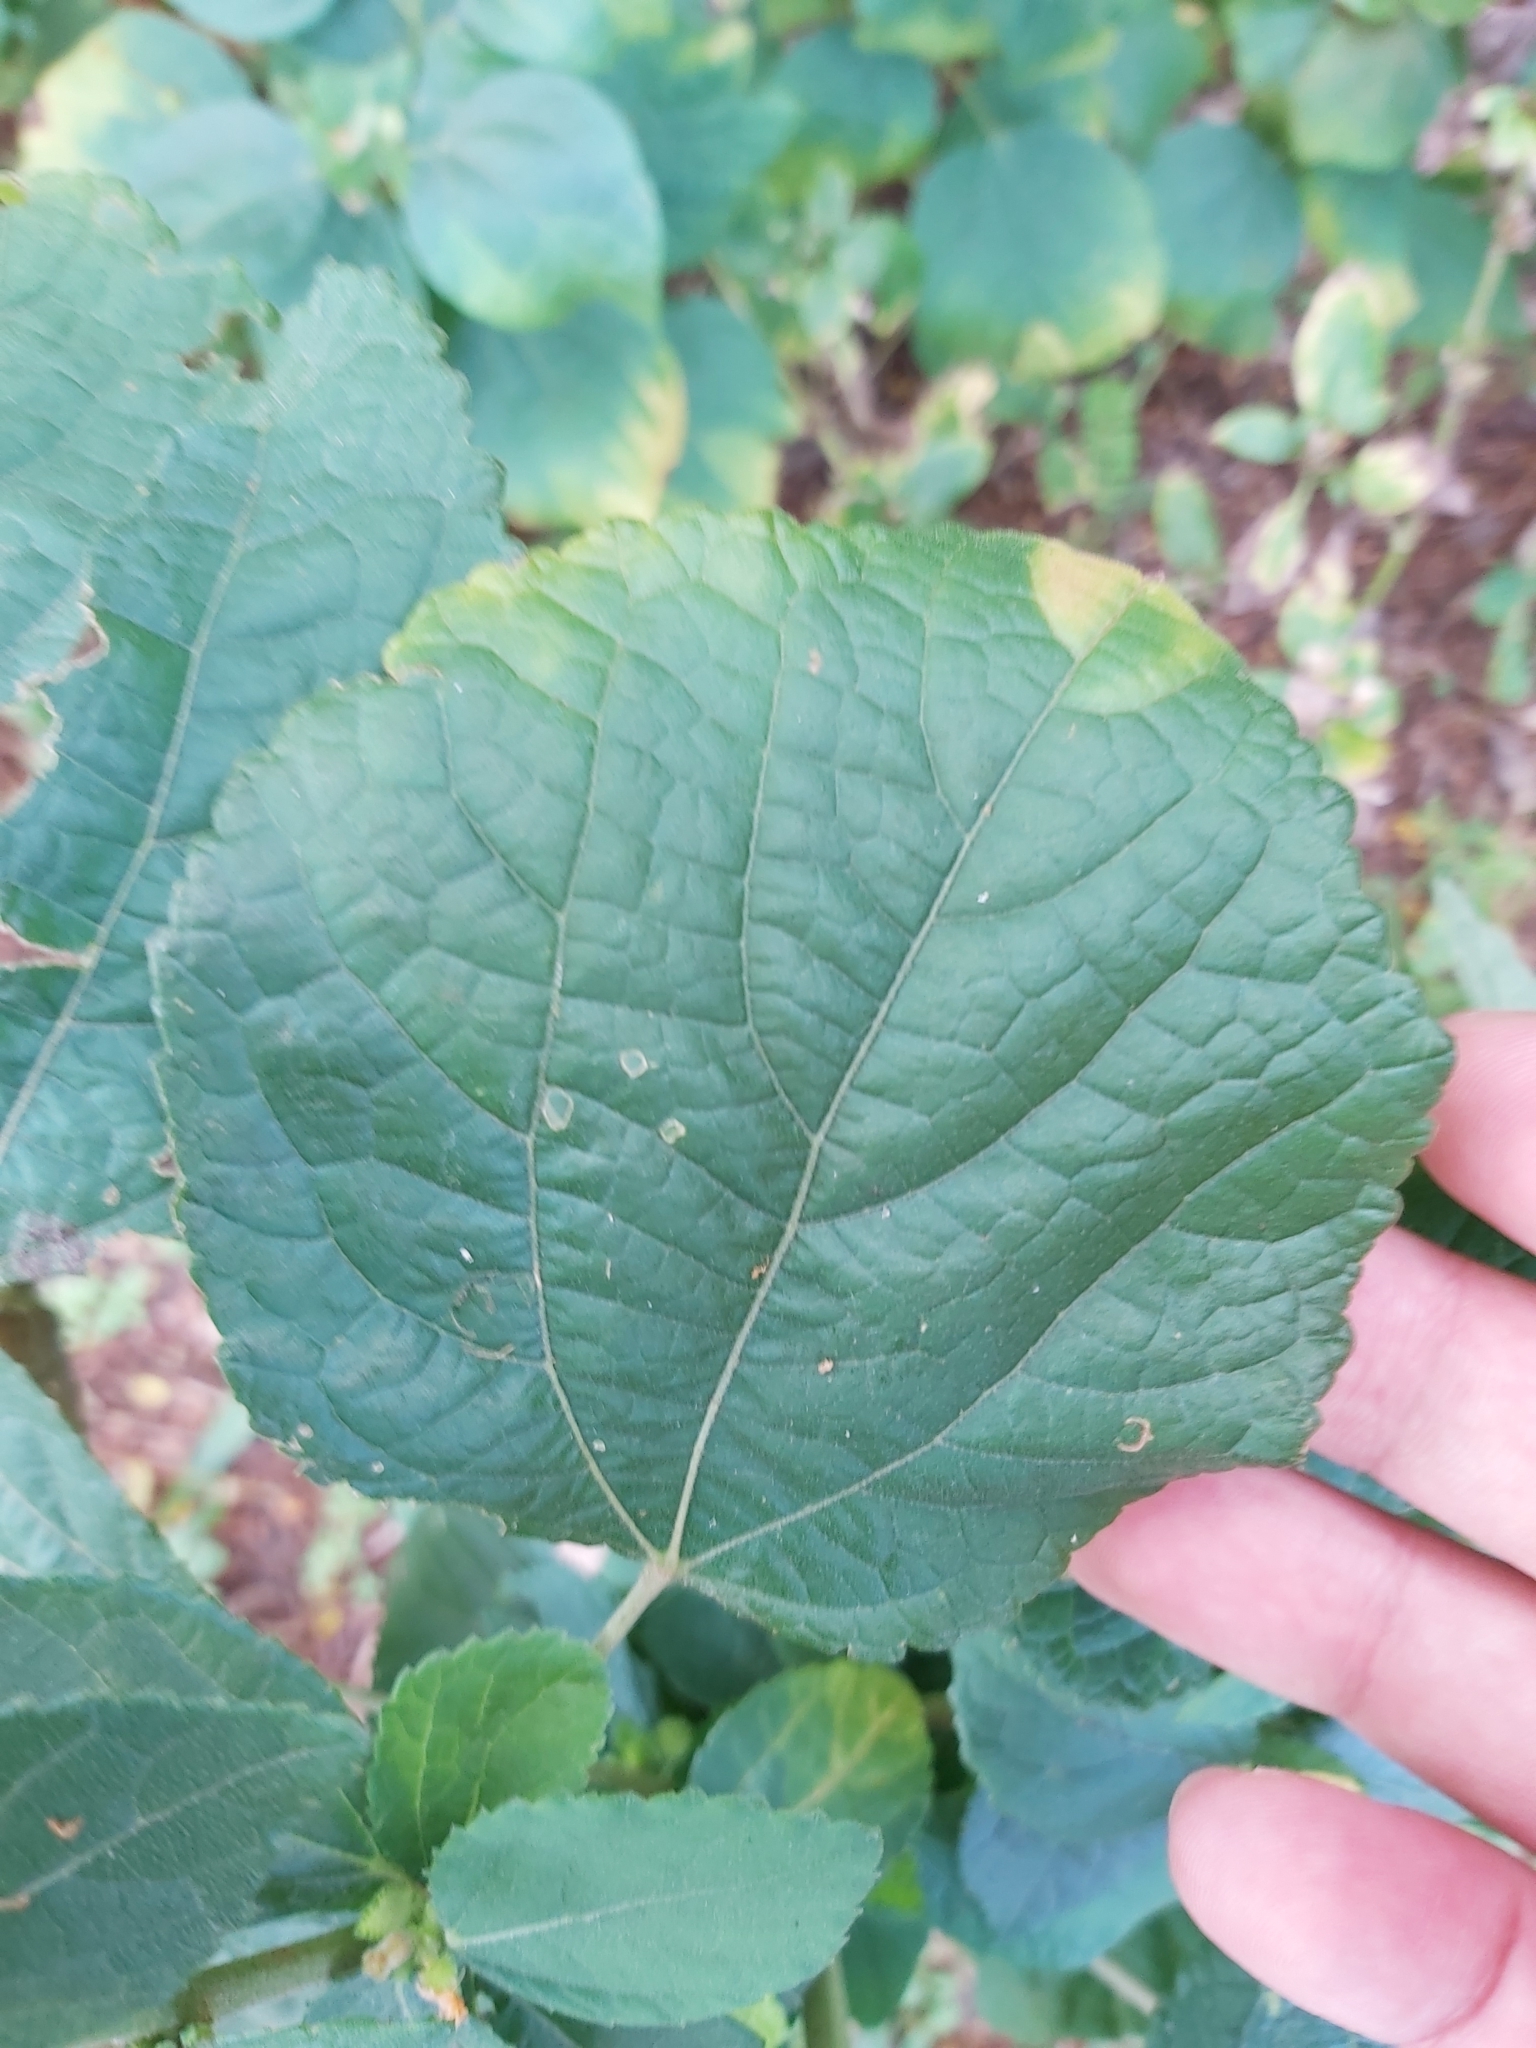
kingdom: Plantae
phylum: Tracheophyta
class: Magnoliopsida
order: Malvales
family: Malvaceae
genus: Triumfetta
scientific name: Triumfetta rhomboidea
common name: Diamond burbark
